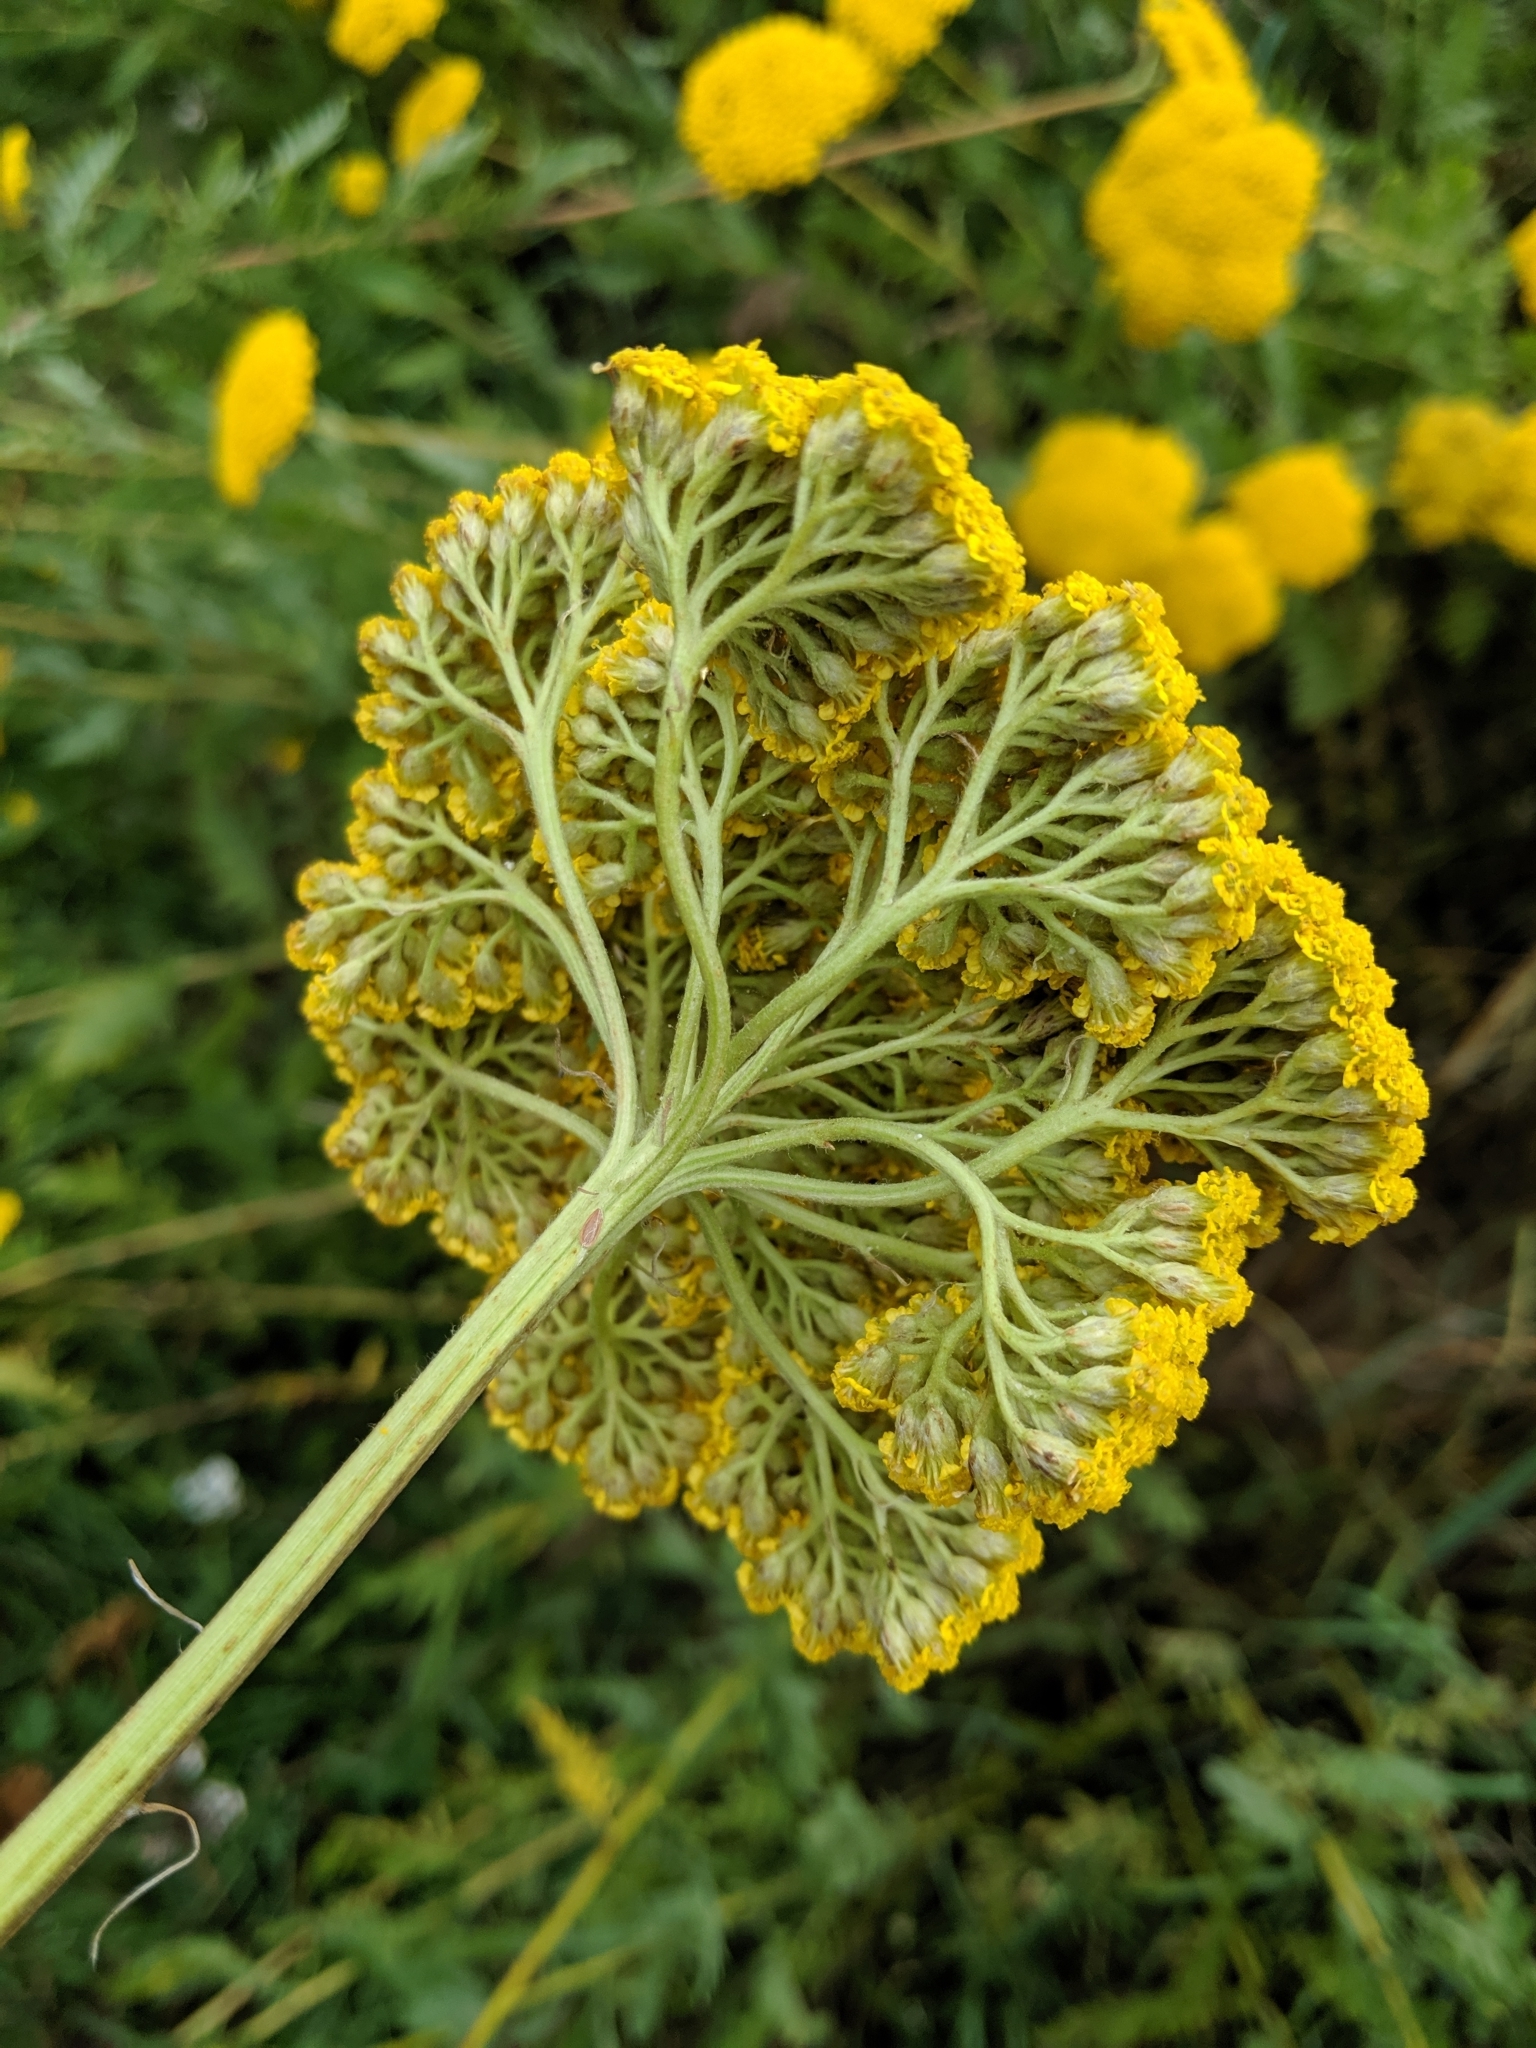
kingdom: Plantae
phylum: Tracheophyta
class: Magnoliopsida
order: Asterales
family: Asteraceae
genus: Achillea
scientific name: Achillea filipendulina
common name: Fernleaf yarrow
